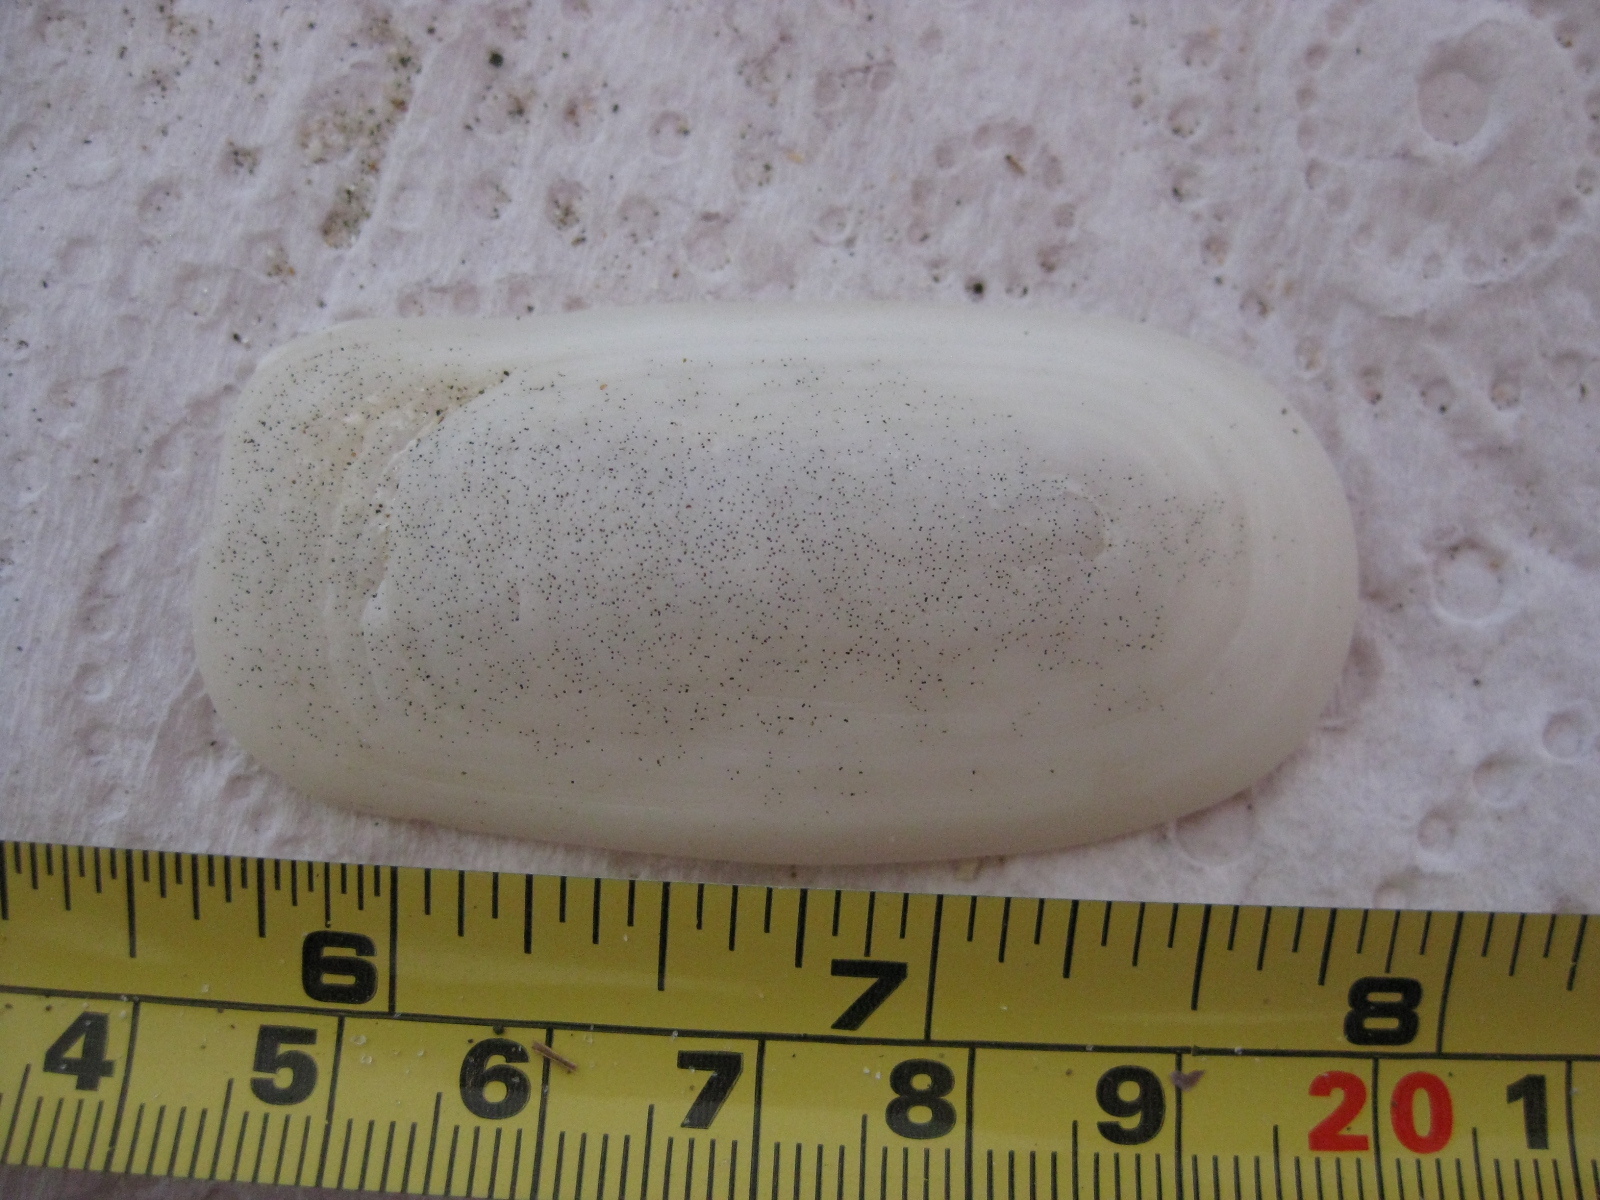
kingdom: Animalia
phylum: Mollusca
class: Gastropoda
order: Lepetellida
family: Fissurellidae
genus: Scutus
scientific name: Scutus breviculus
